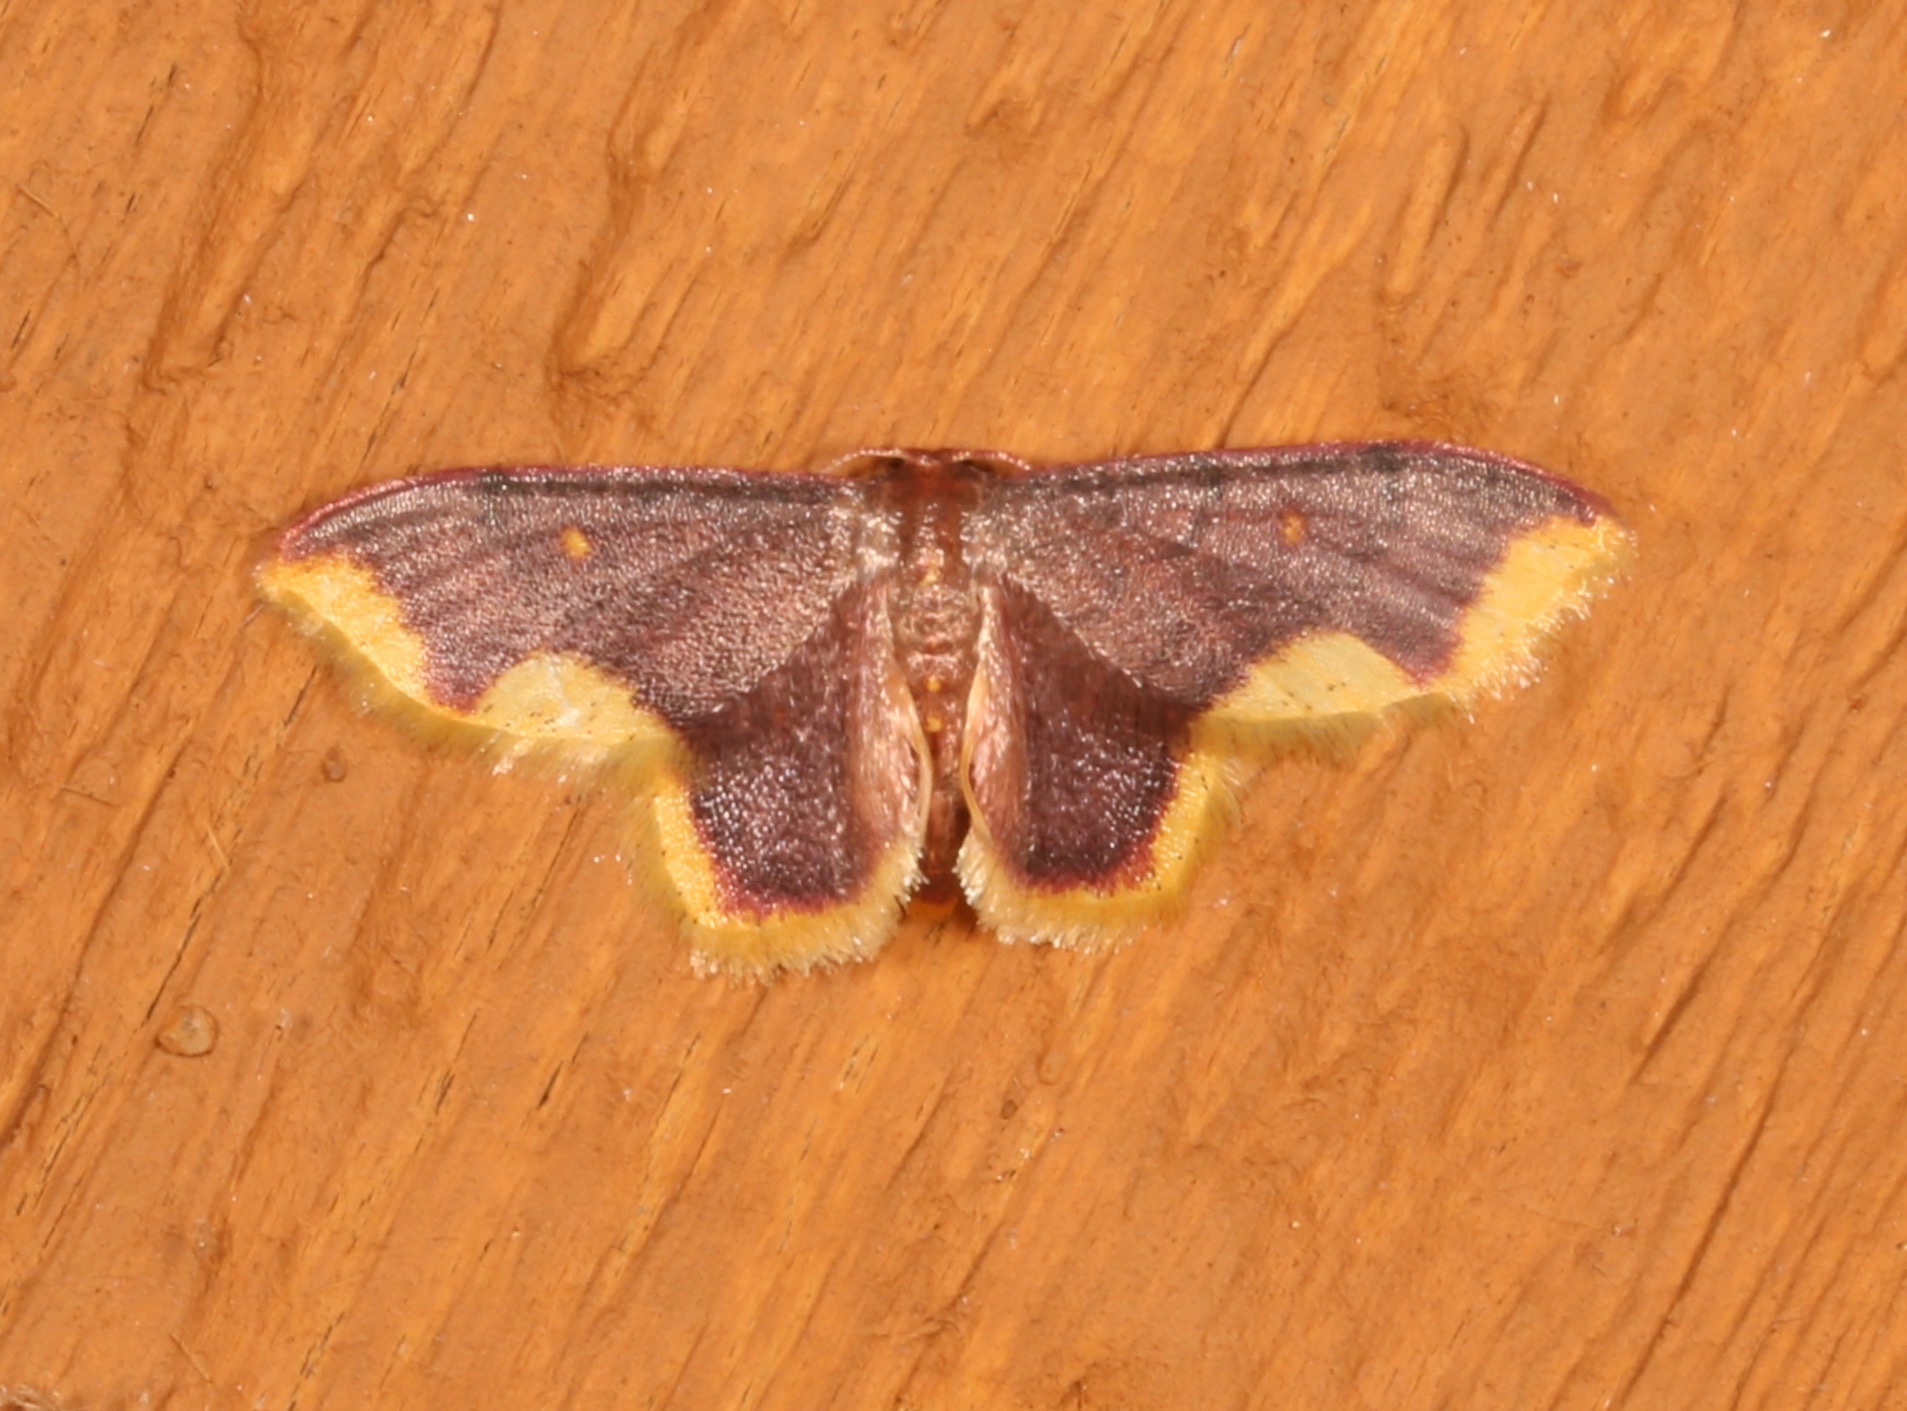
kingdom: Animalia
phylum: Arthropoda
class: Insecta
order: Lepidoptera
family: Geometridae
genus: Lophosis
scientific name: Lophosis labeculata
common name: Stained lophosis moth
